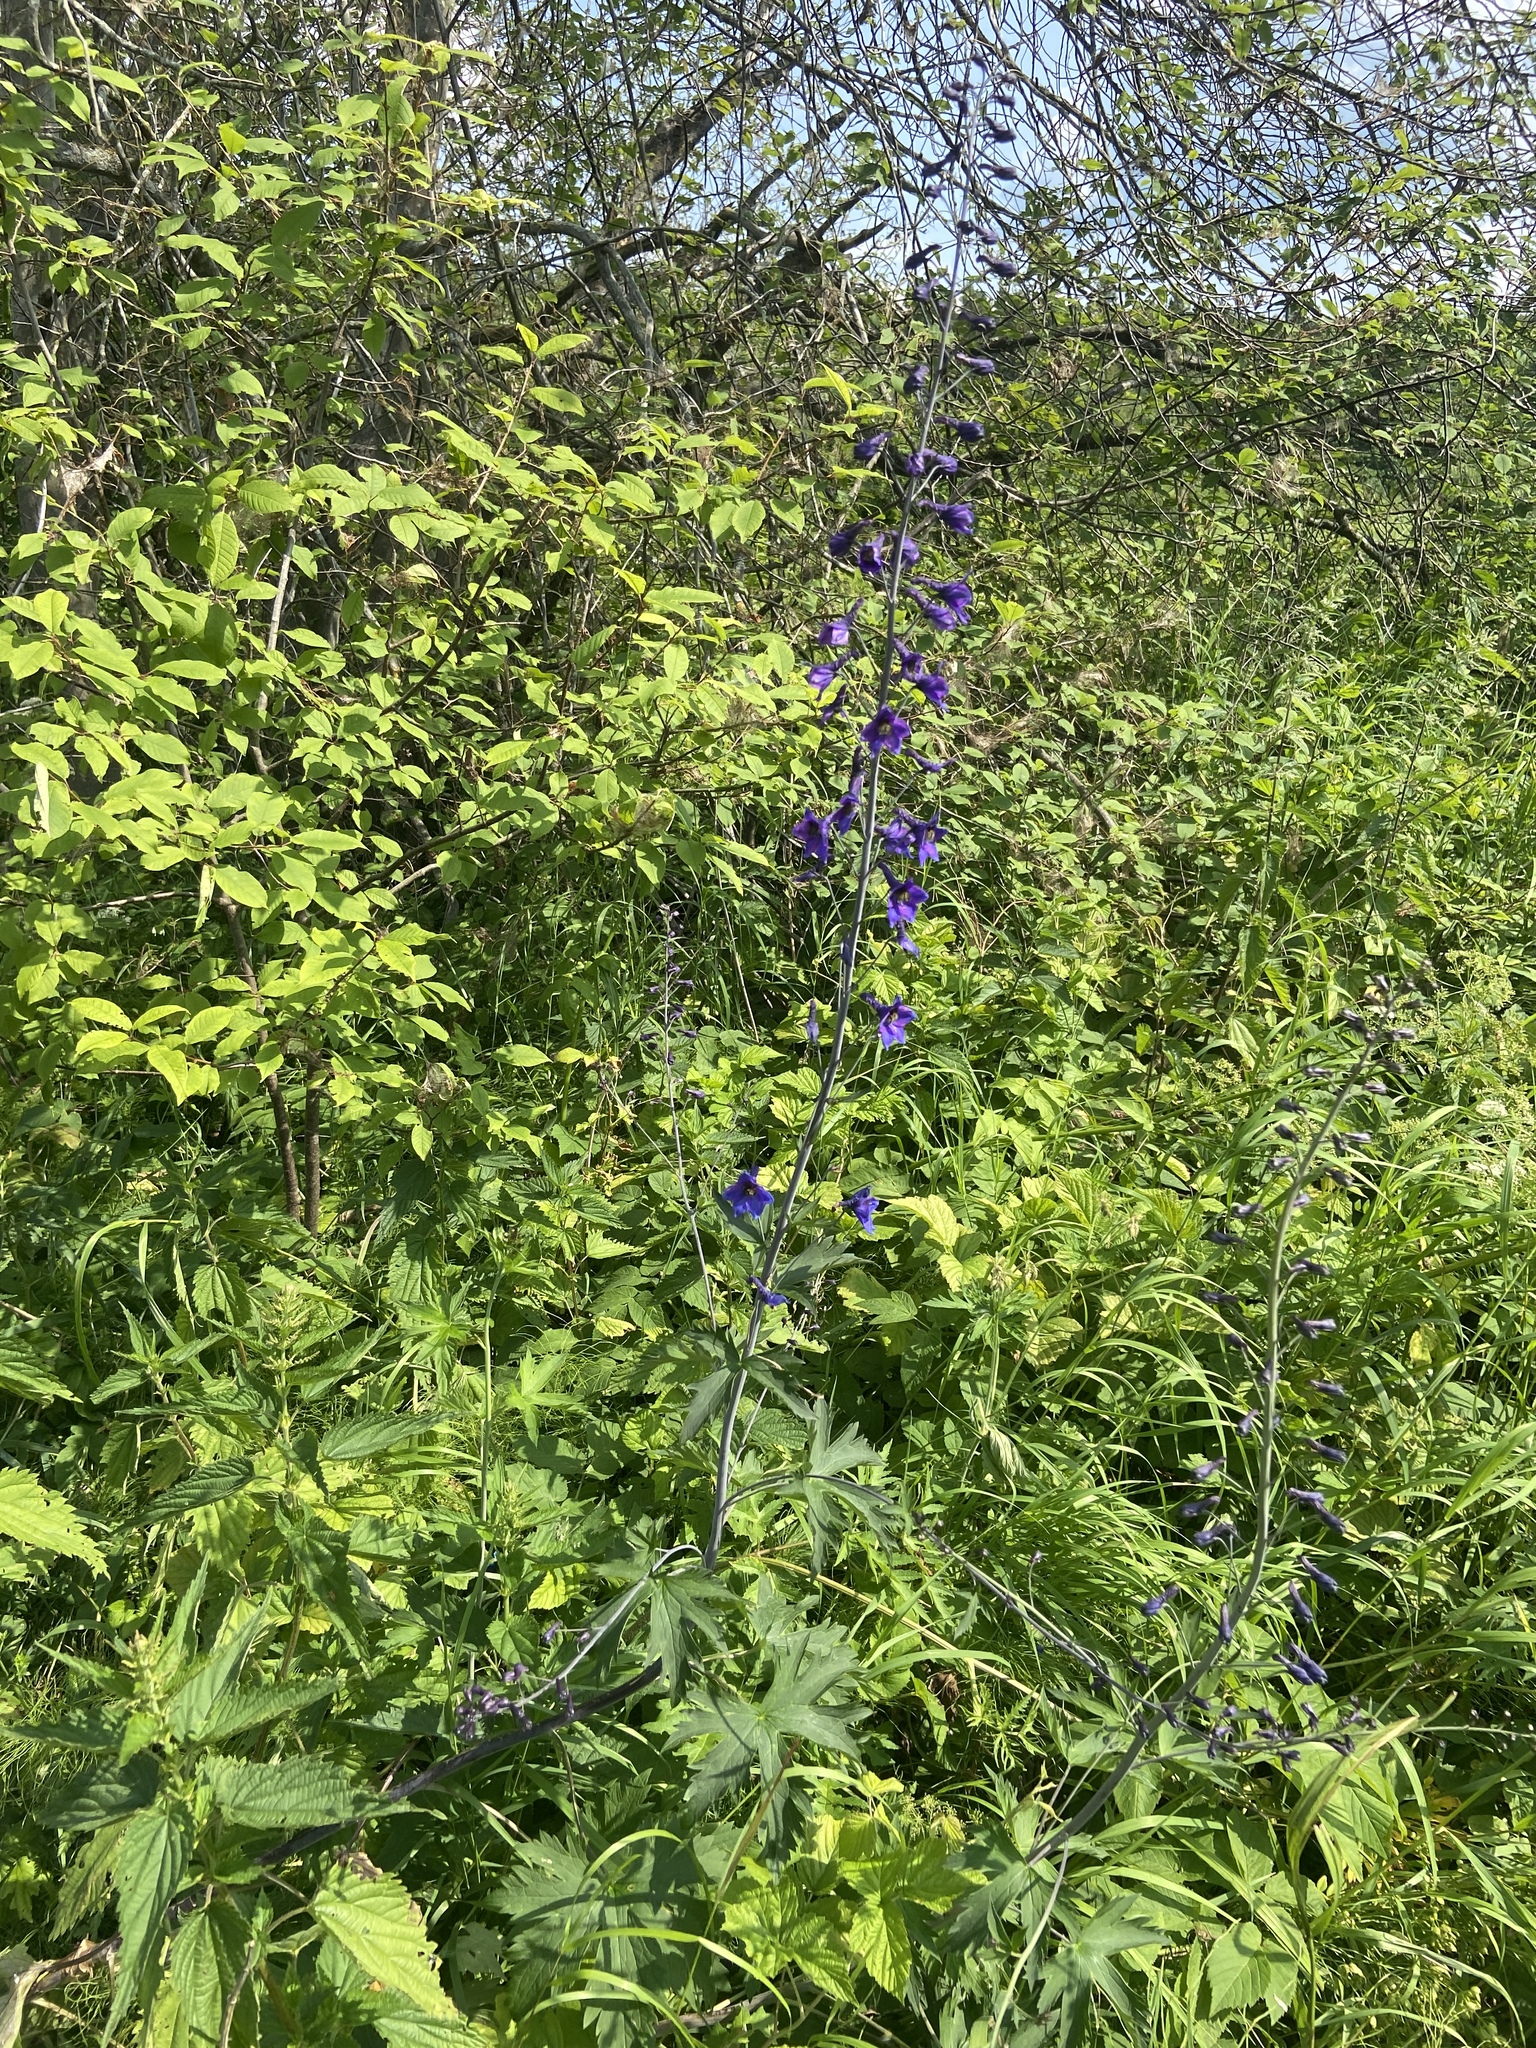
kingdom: Plantae
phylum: Tracheophyta
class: Magnoliopsida
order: Ranunculales
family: Ranunculaceae
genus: Delphinium
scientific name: Delphinium elatum
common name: Candle larkspur
